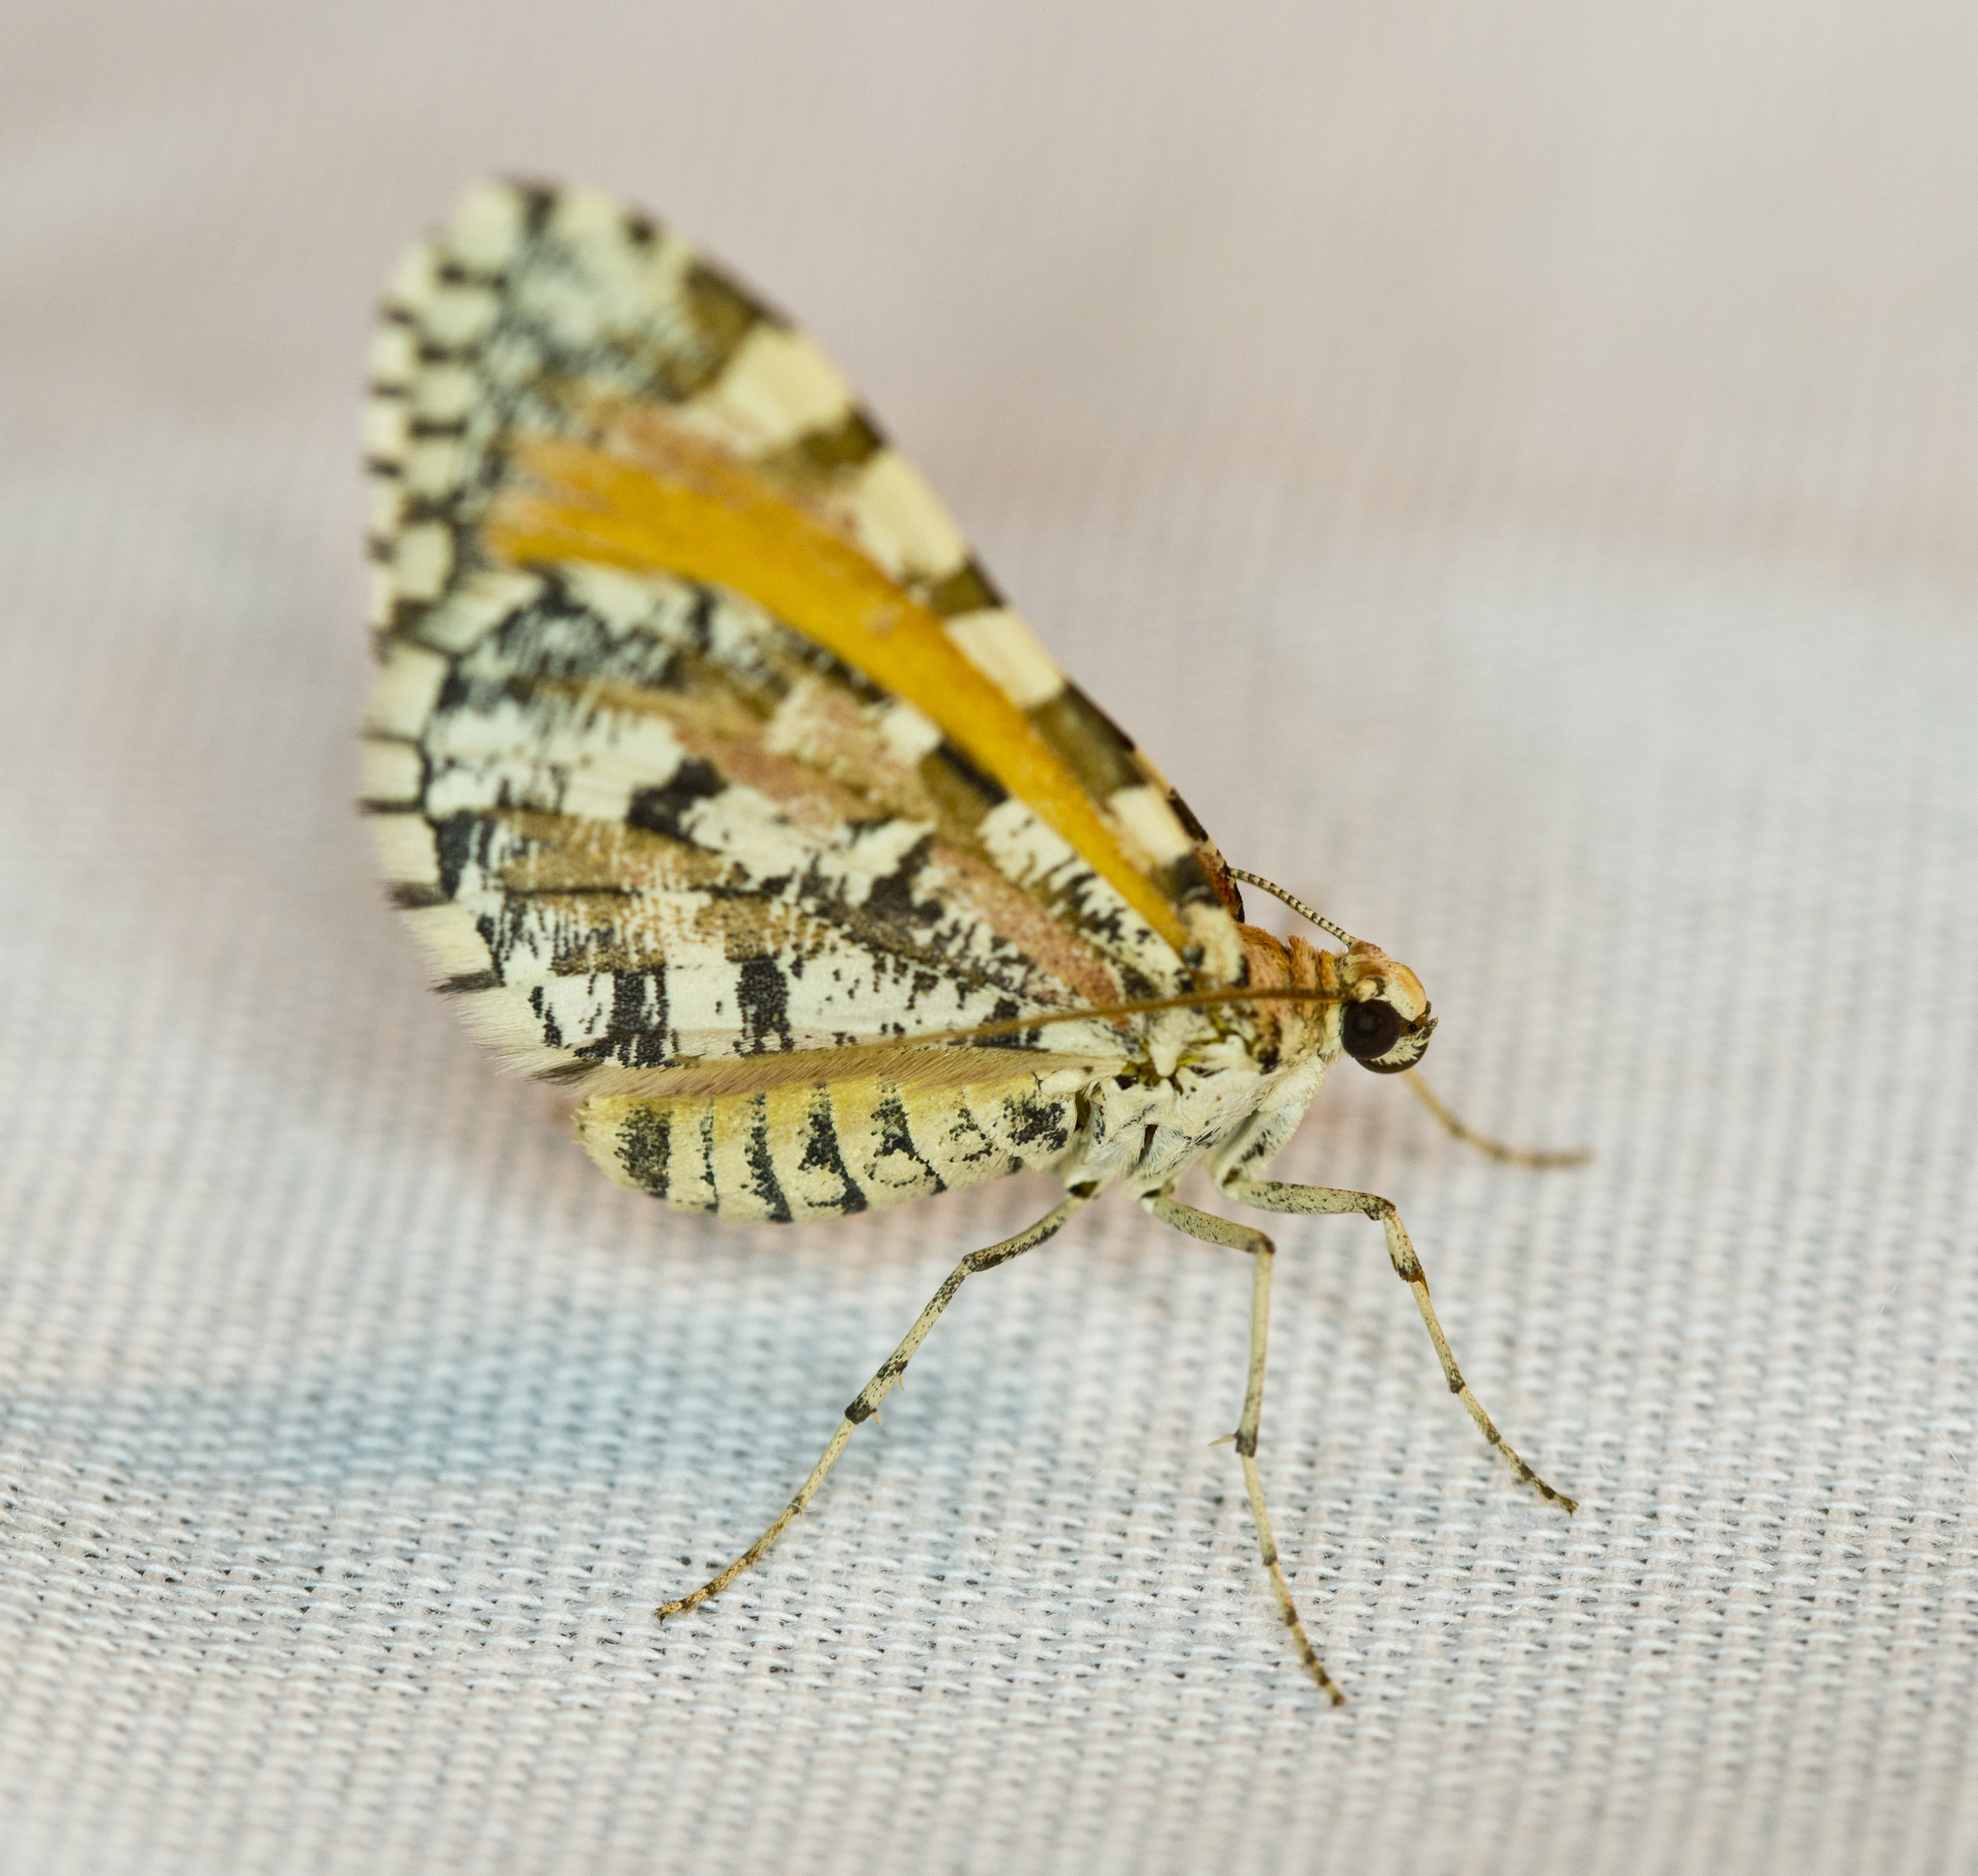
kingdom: Animalia
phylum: Arthropoda
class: Insecta
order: Lepidoptera
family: Geometridae
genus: Stamnodes
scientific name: Stamnodes tessellata
